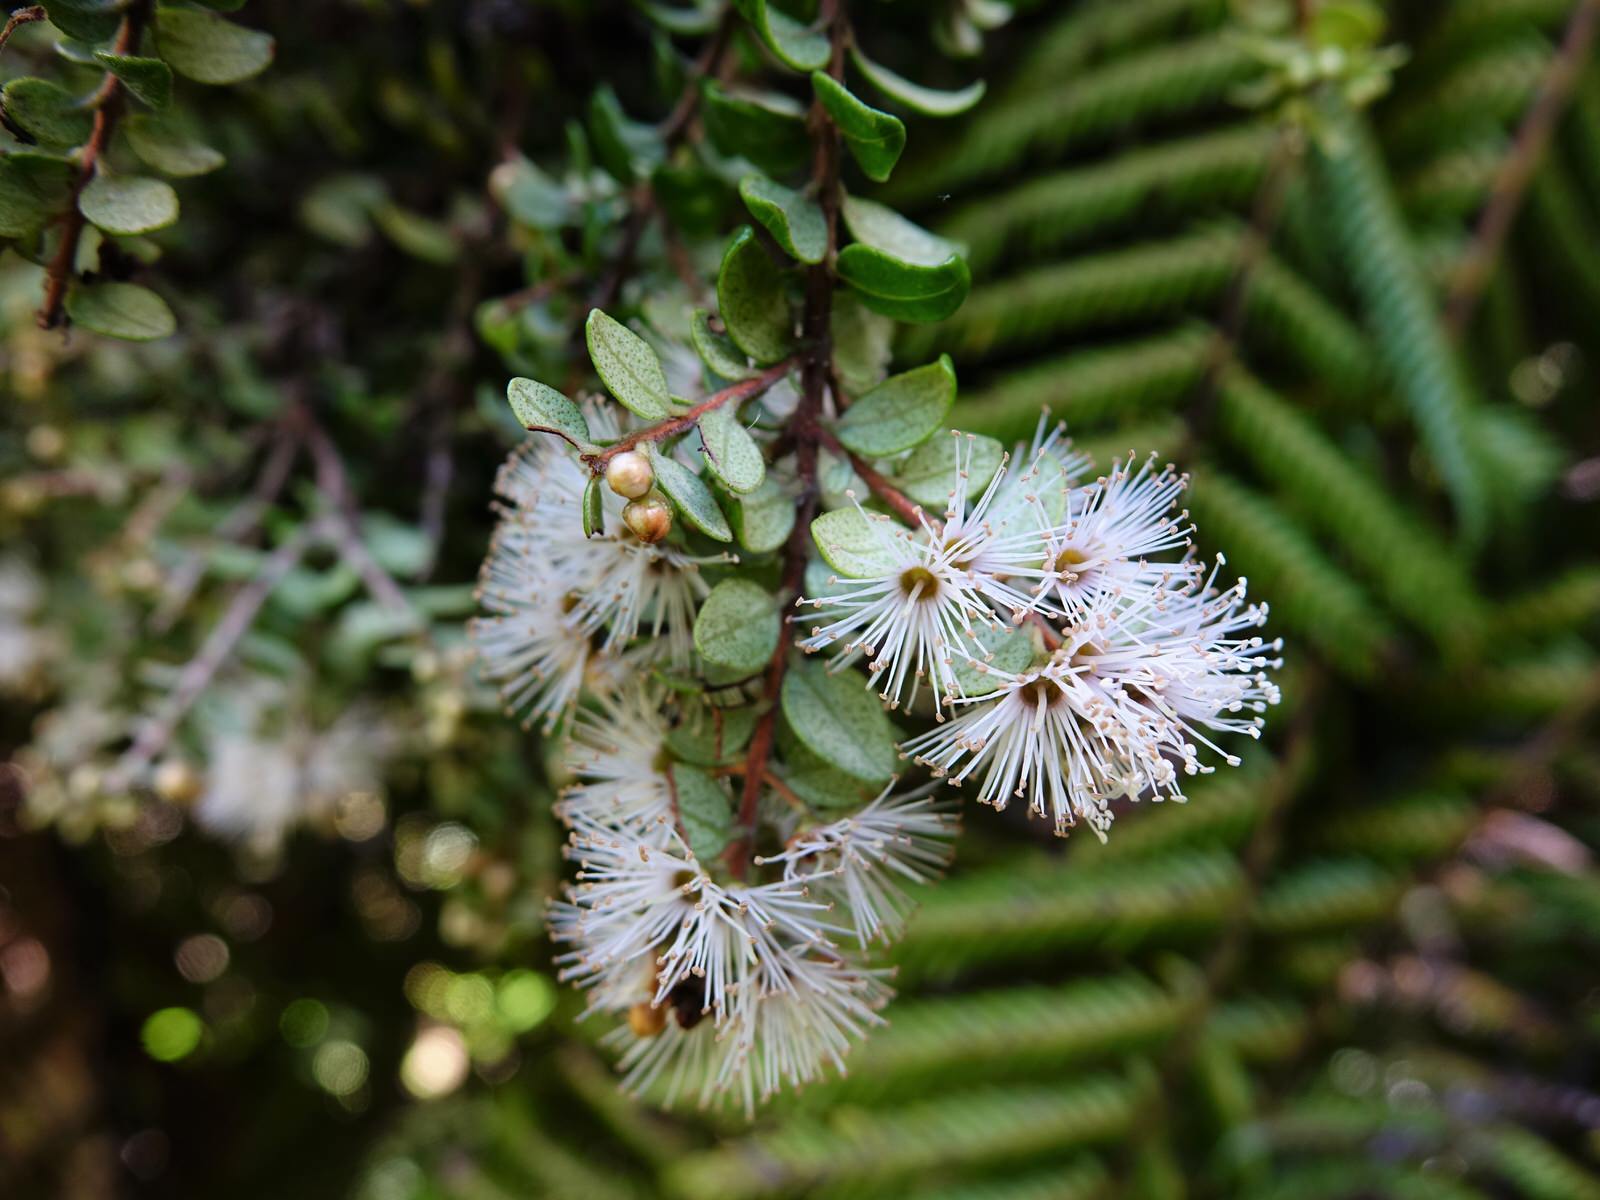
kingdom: Plantae
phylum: Tracheophyta
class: Magnoliopsida
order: Myrtales
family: Myrtaceae
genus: Metrosideros
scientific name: Metrosideros perforata
